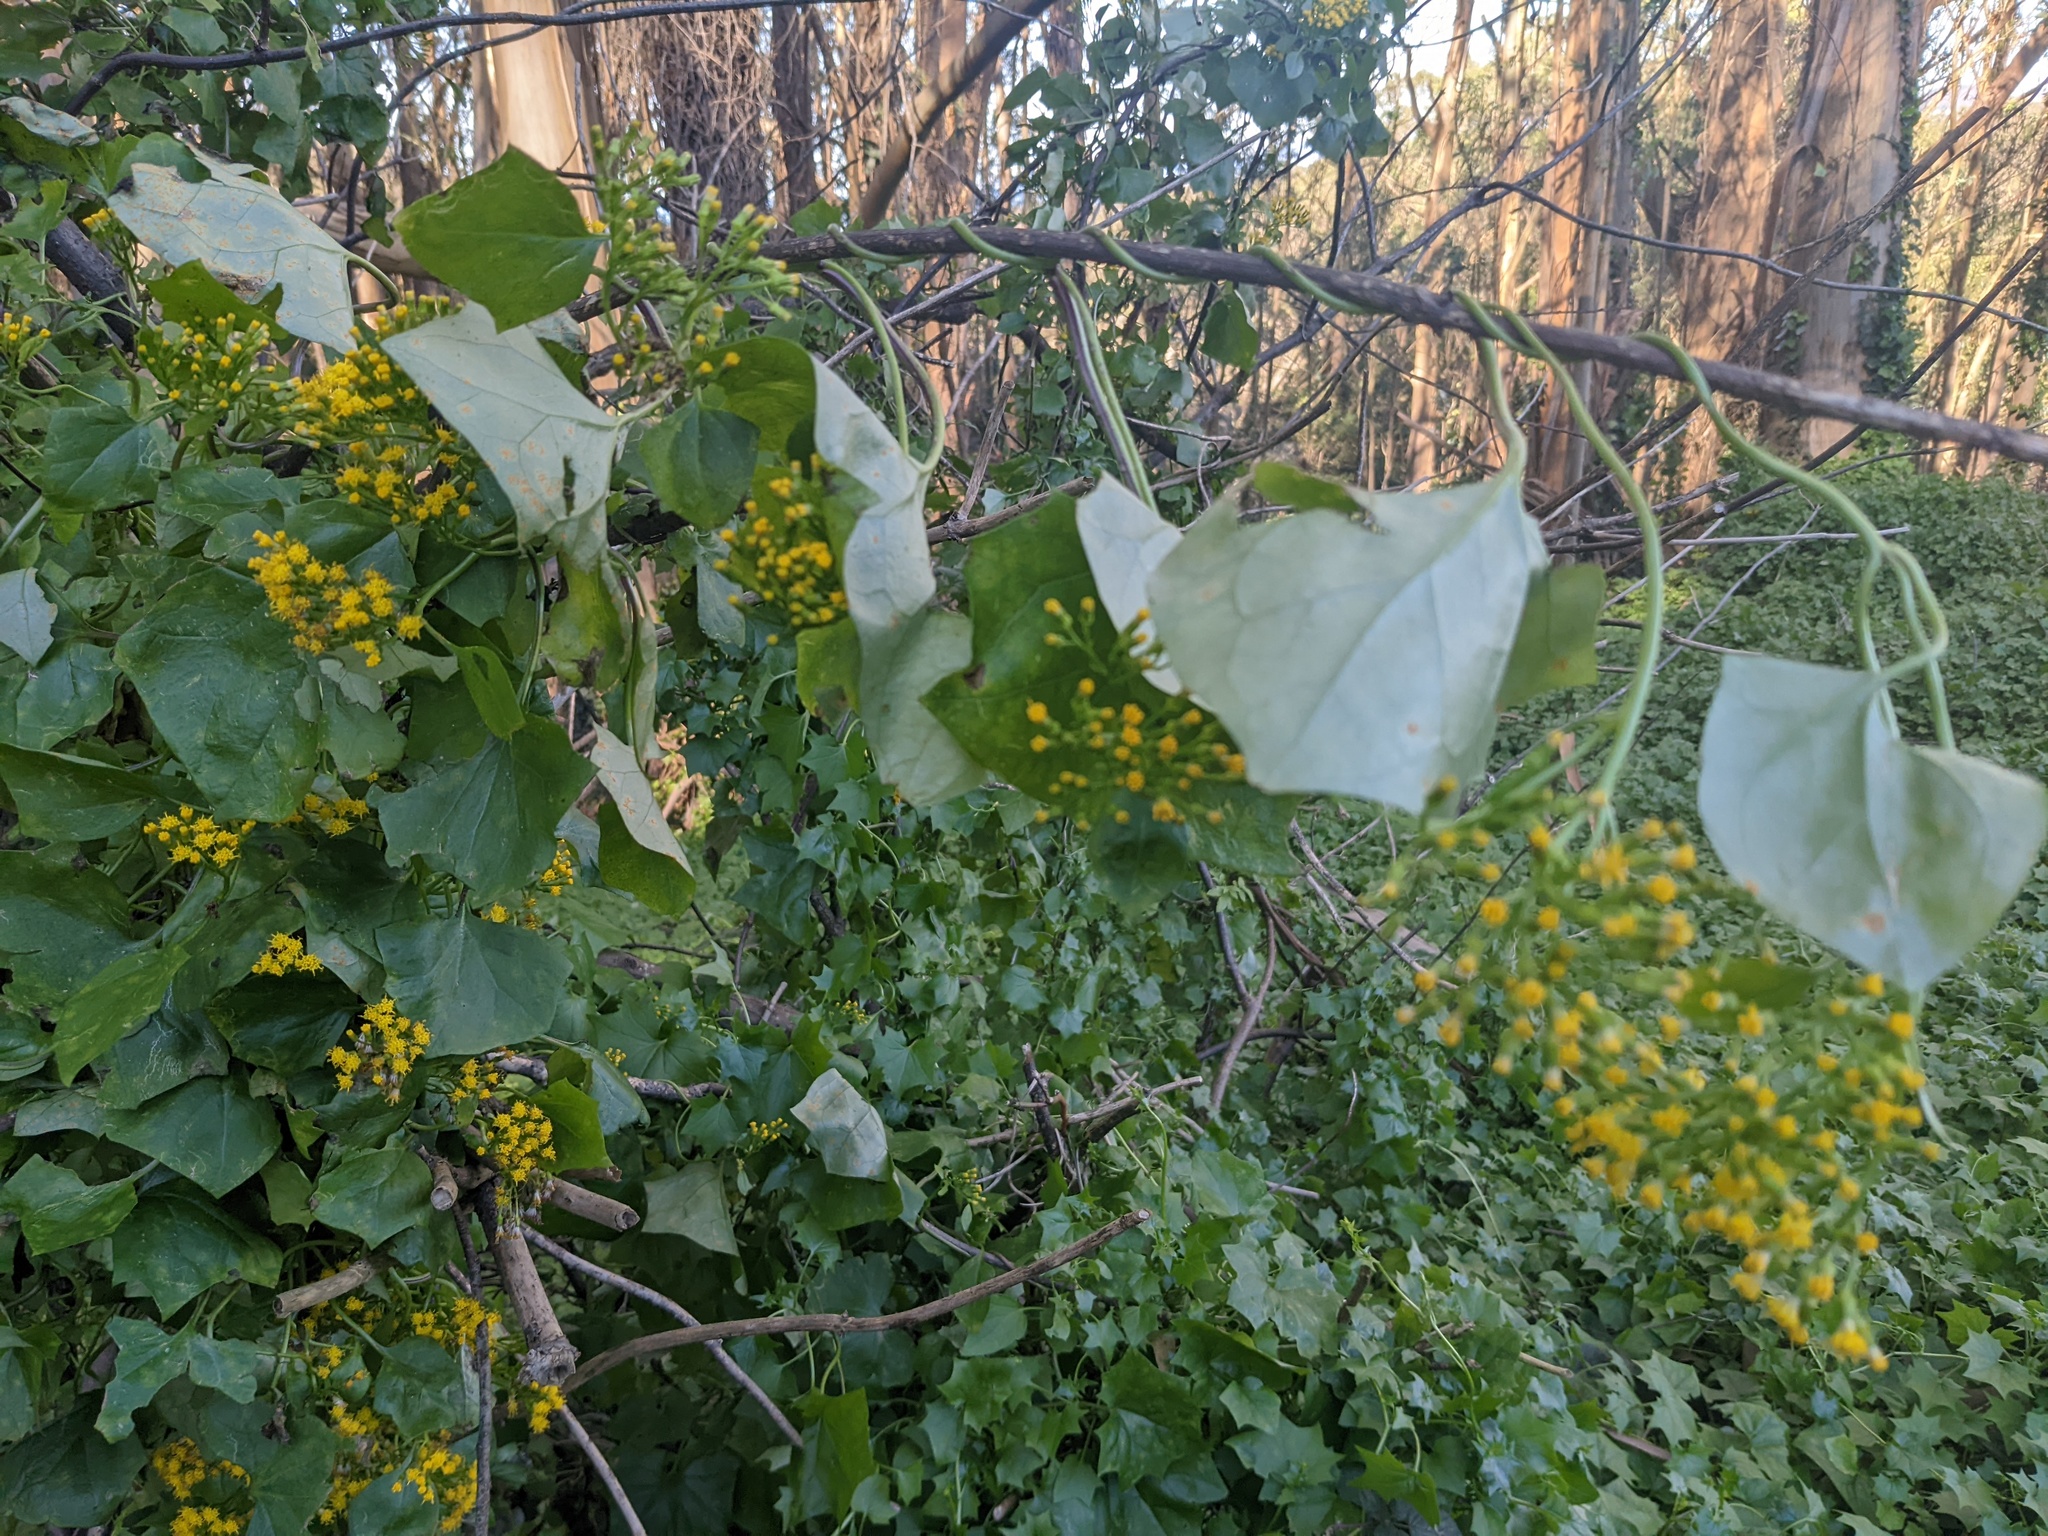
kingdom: Plantae
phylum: Tracheophyta
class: Magnoliopsida
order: Asterales
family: Asteraceae
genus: Delairea
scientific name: Delairea odorata
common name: Cape-ivy
